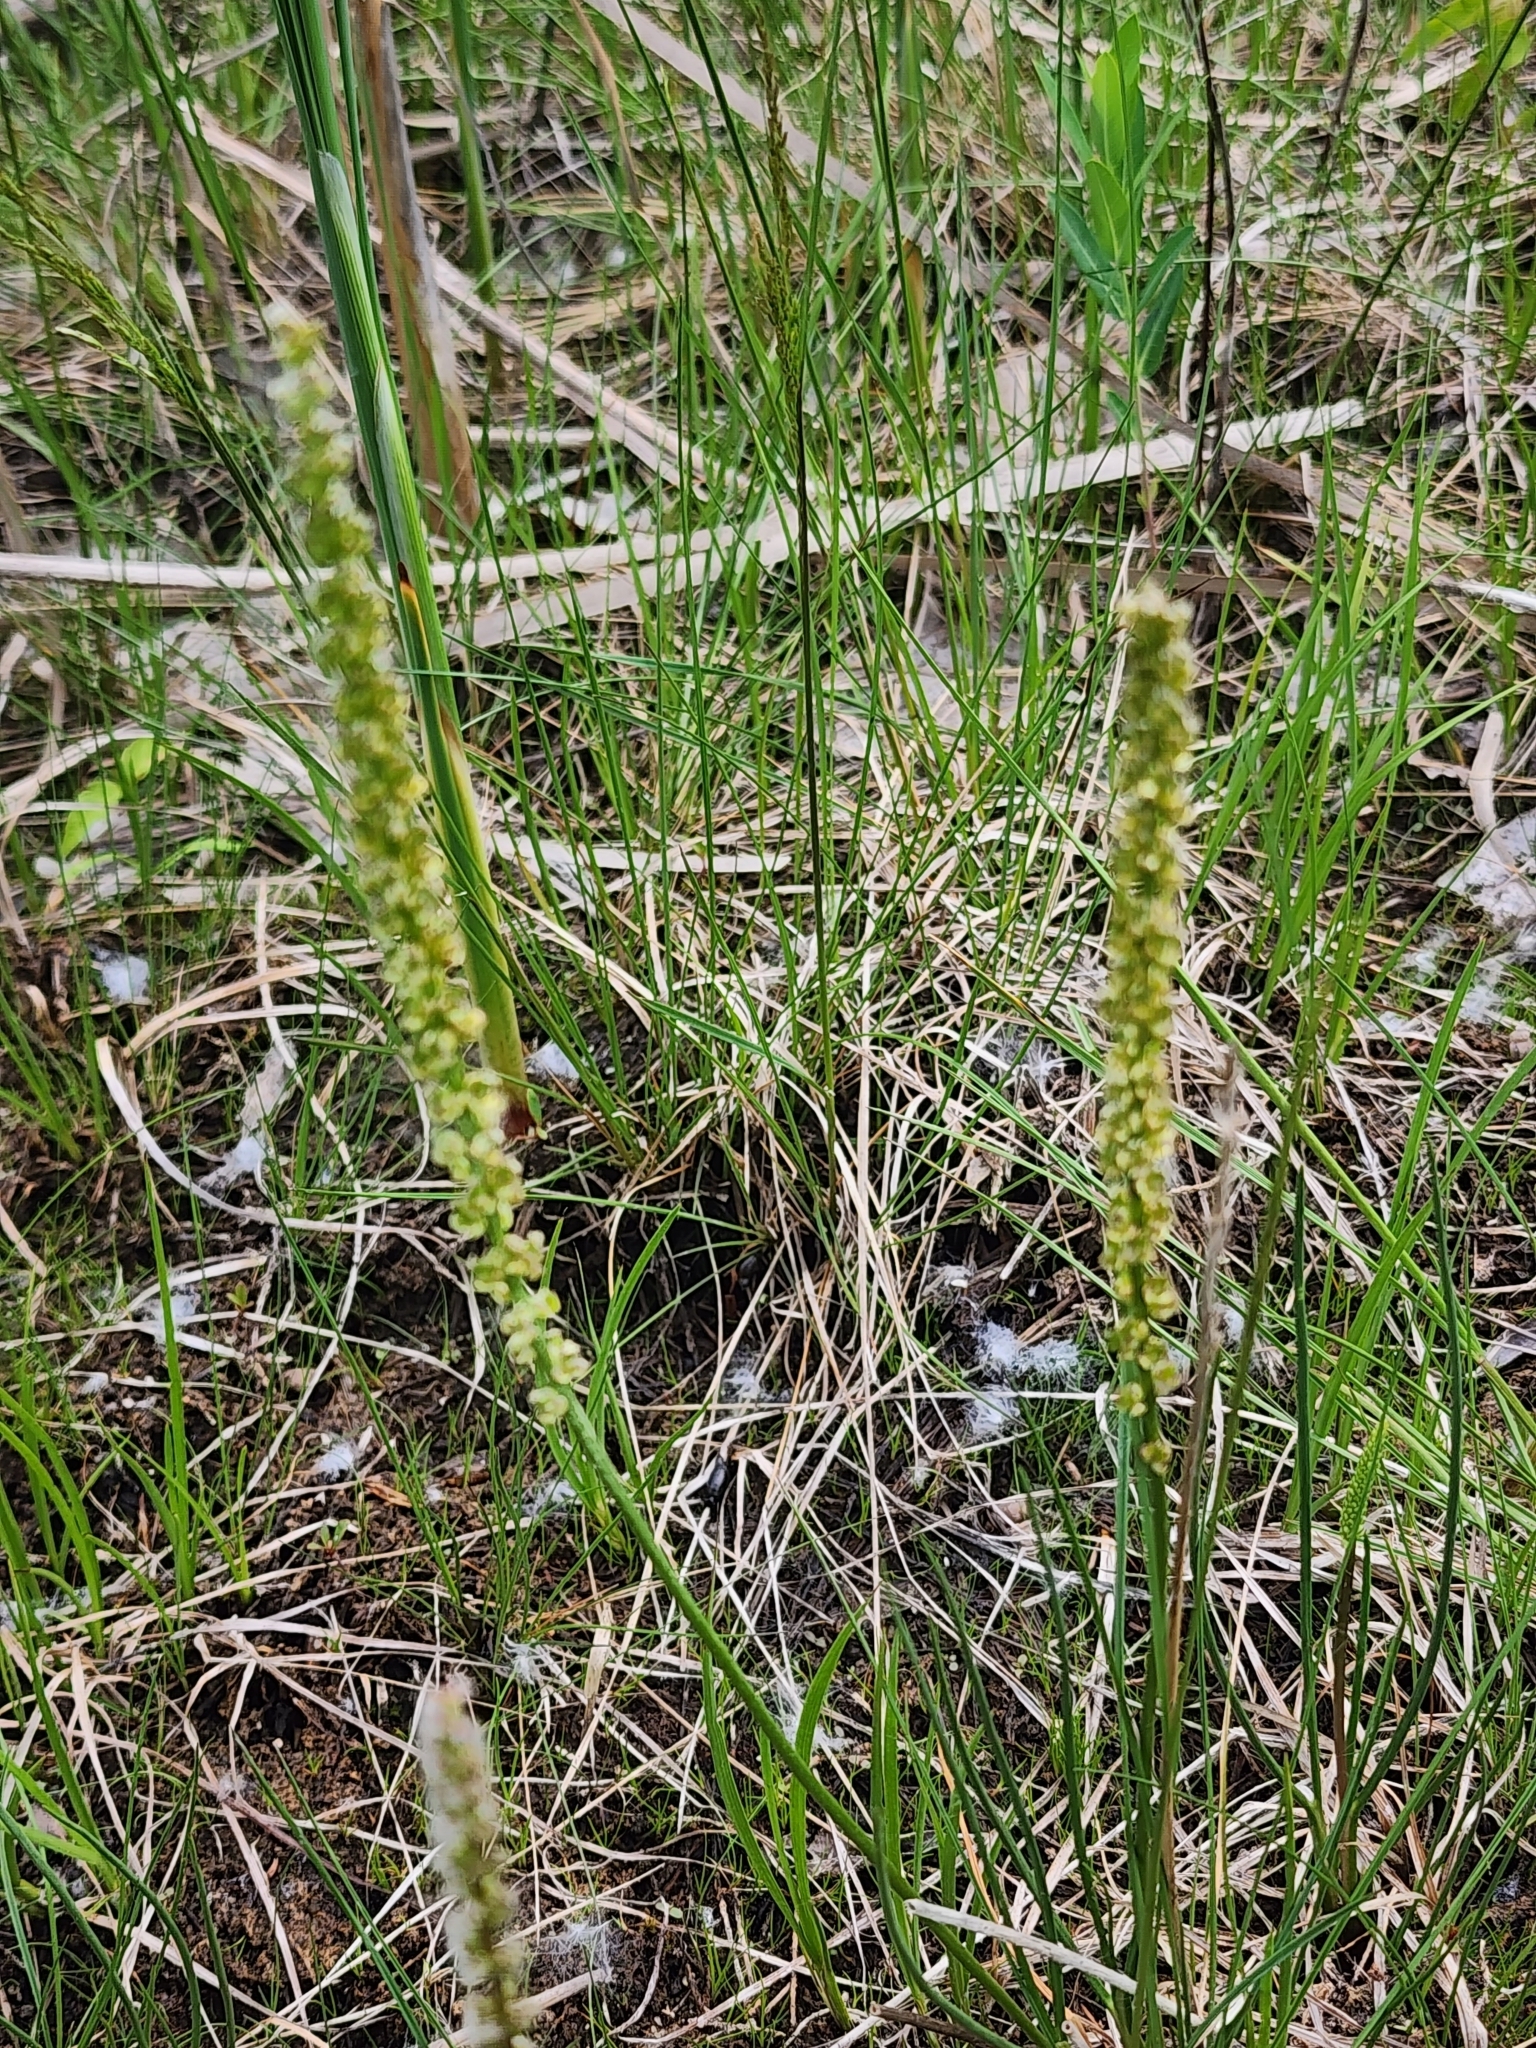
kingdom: Plantae
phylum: Tracheophyta
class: Liliopsida
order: Alismatales
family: Juncaginaceae
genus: Triglochin
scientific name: Triglochin maritima
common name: Sea arrowgrass
